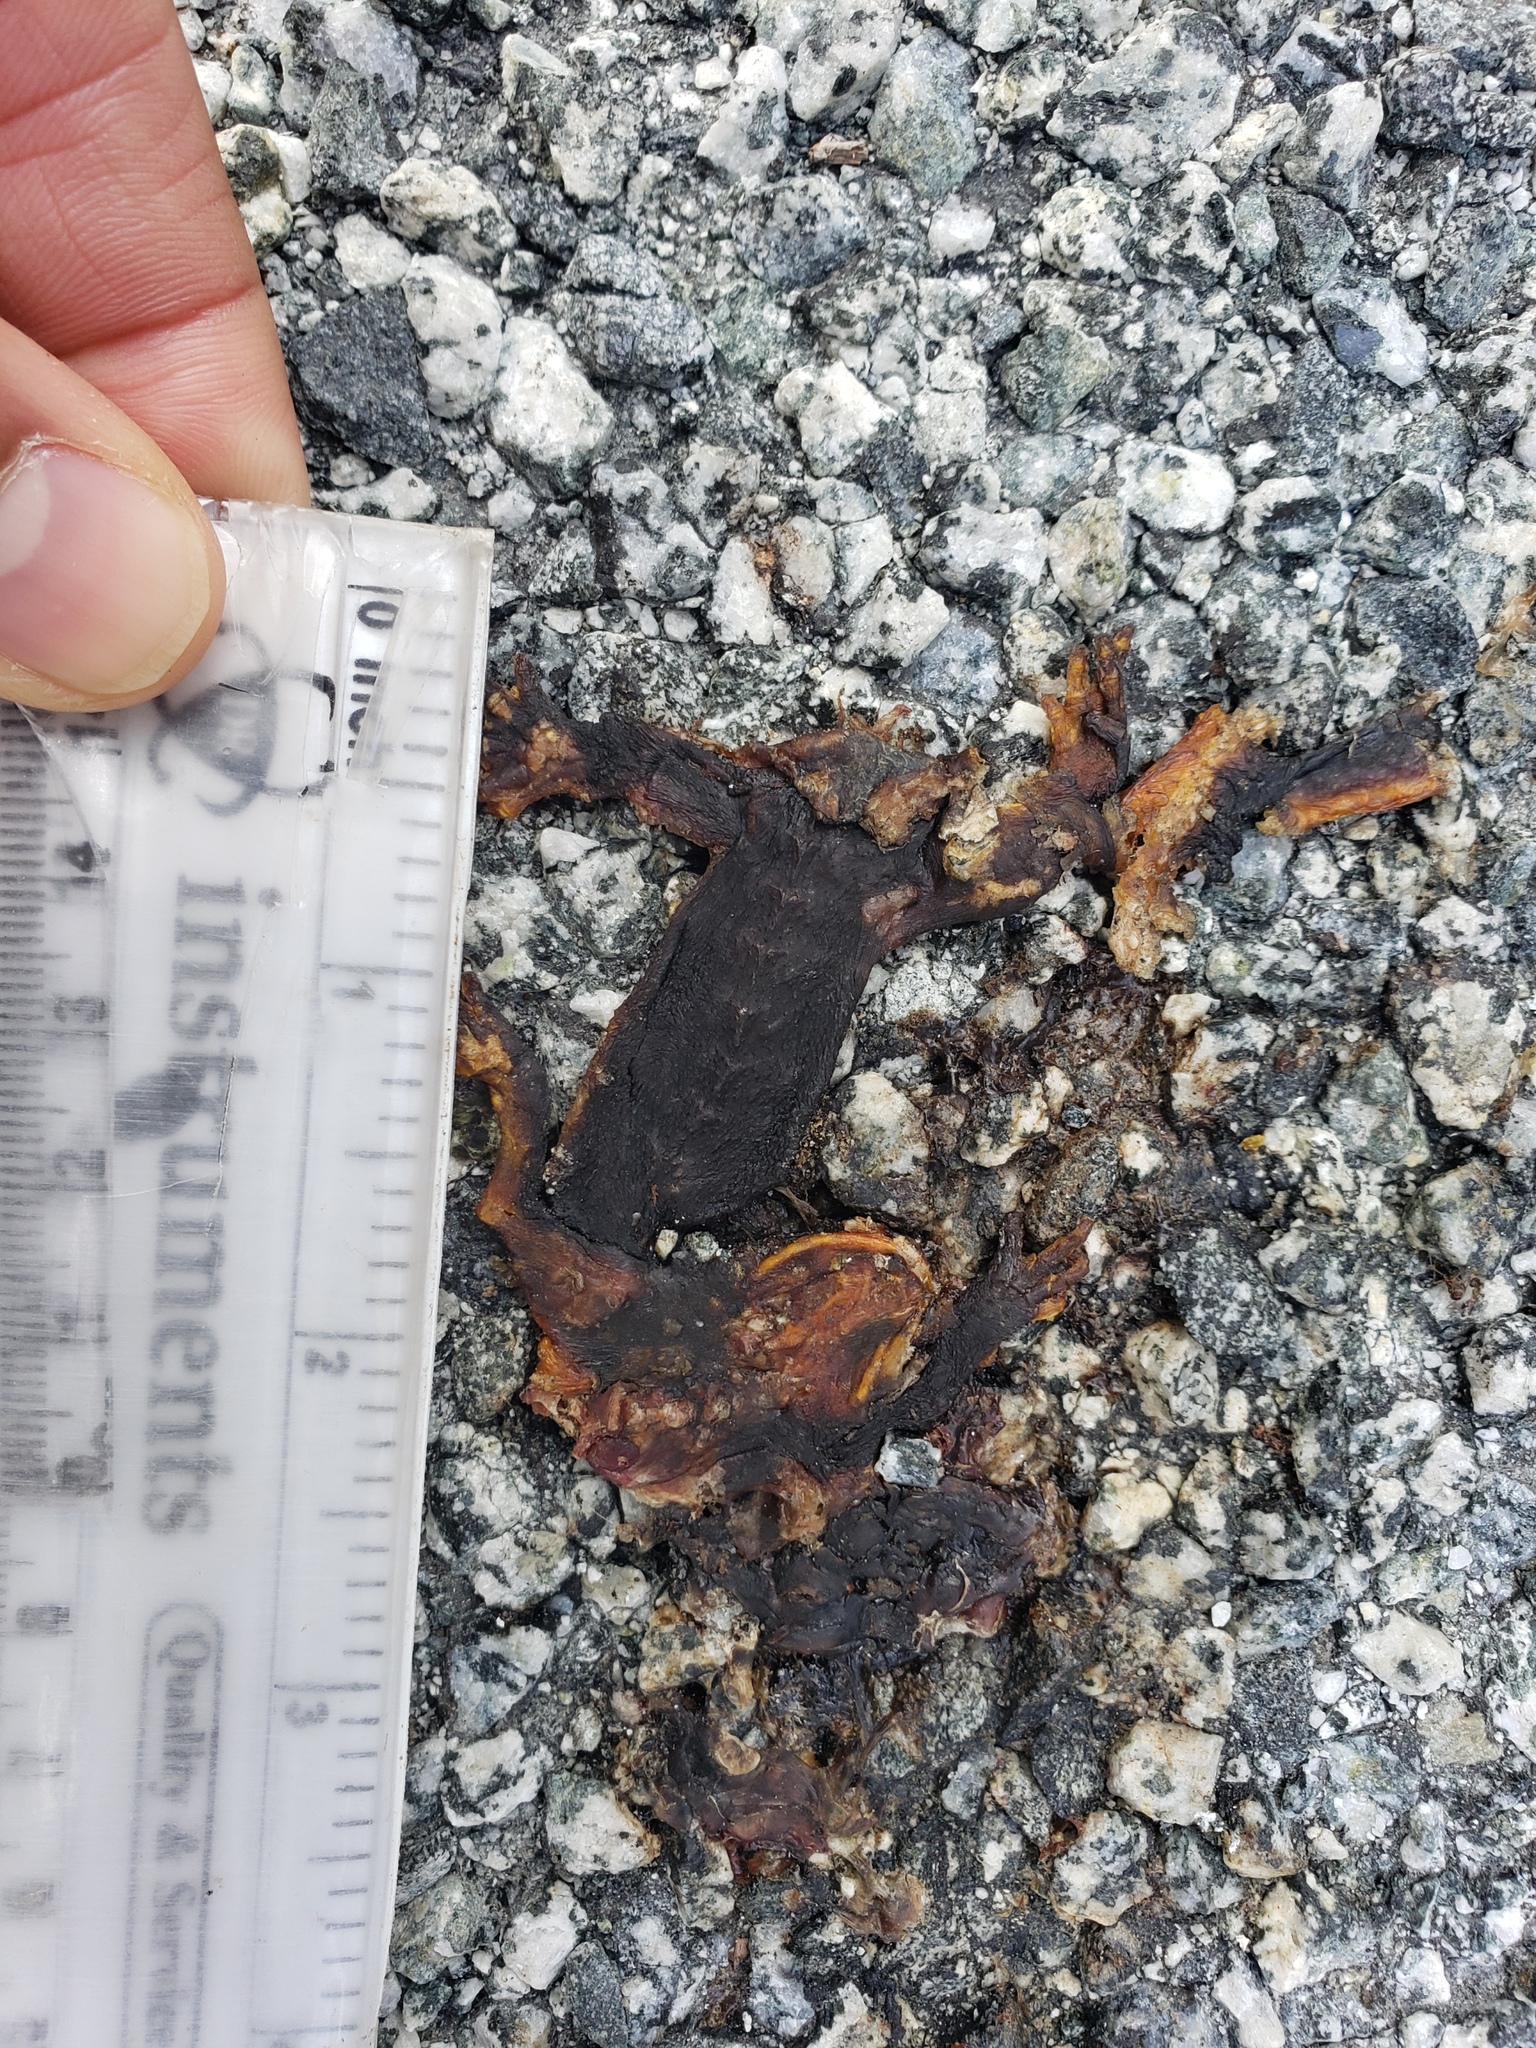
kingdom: Animalia
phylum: Chordata
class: Amphibia
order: Caudata
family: Salamandridae
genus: Taricha
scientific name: Taricha
